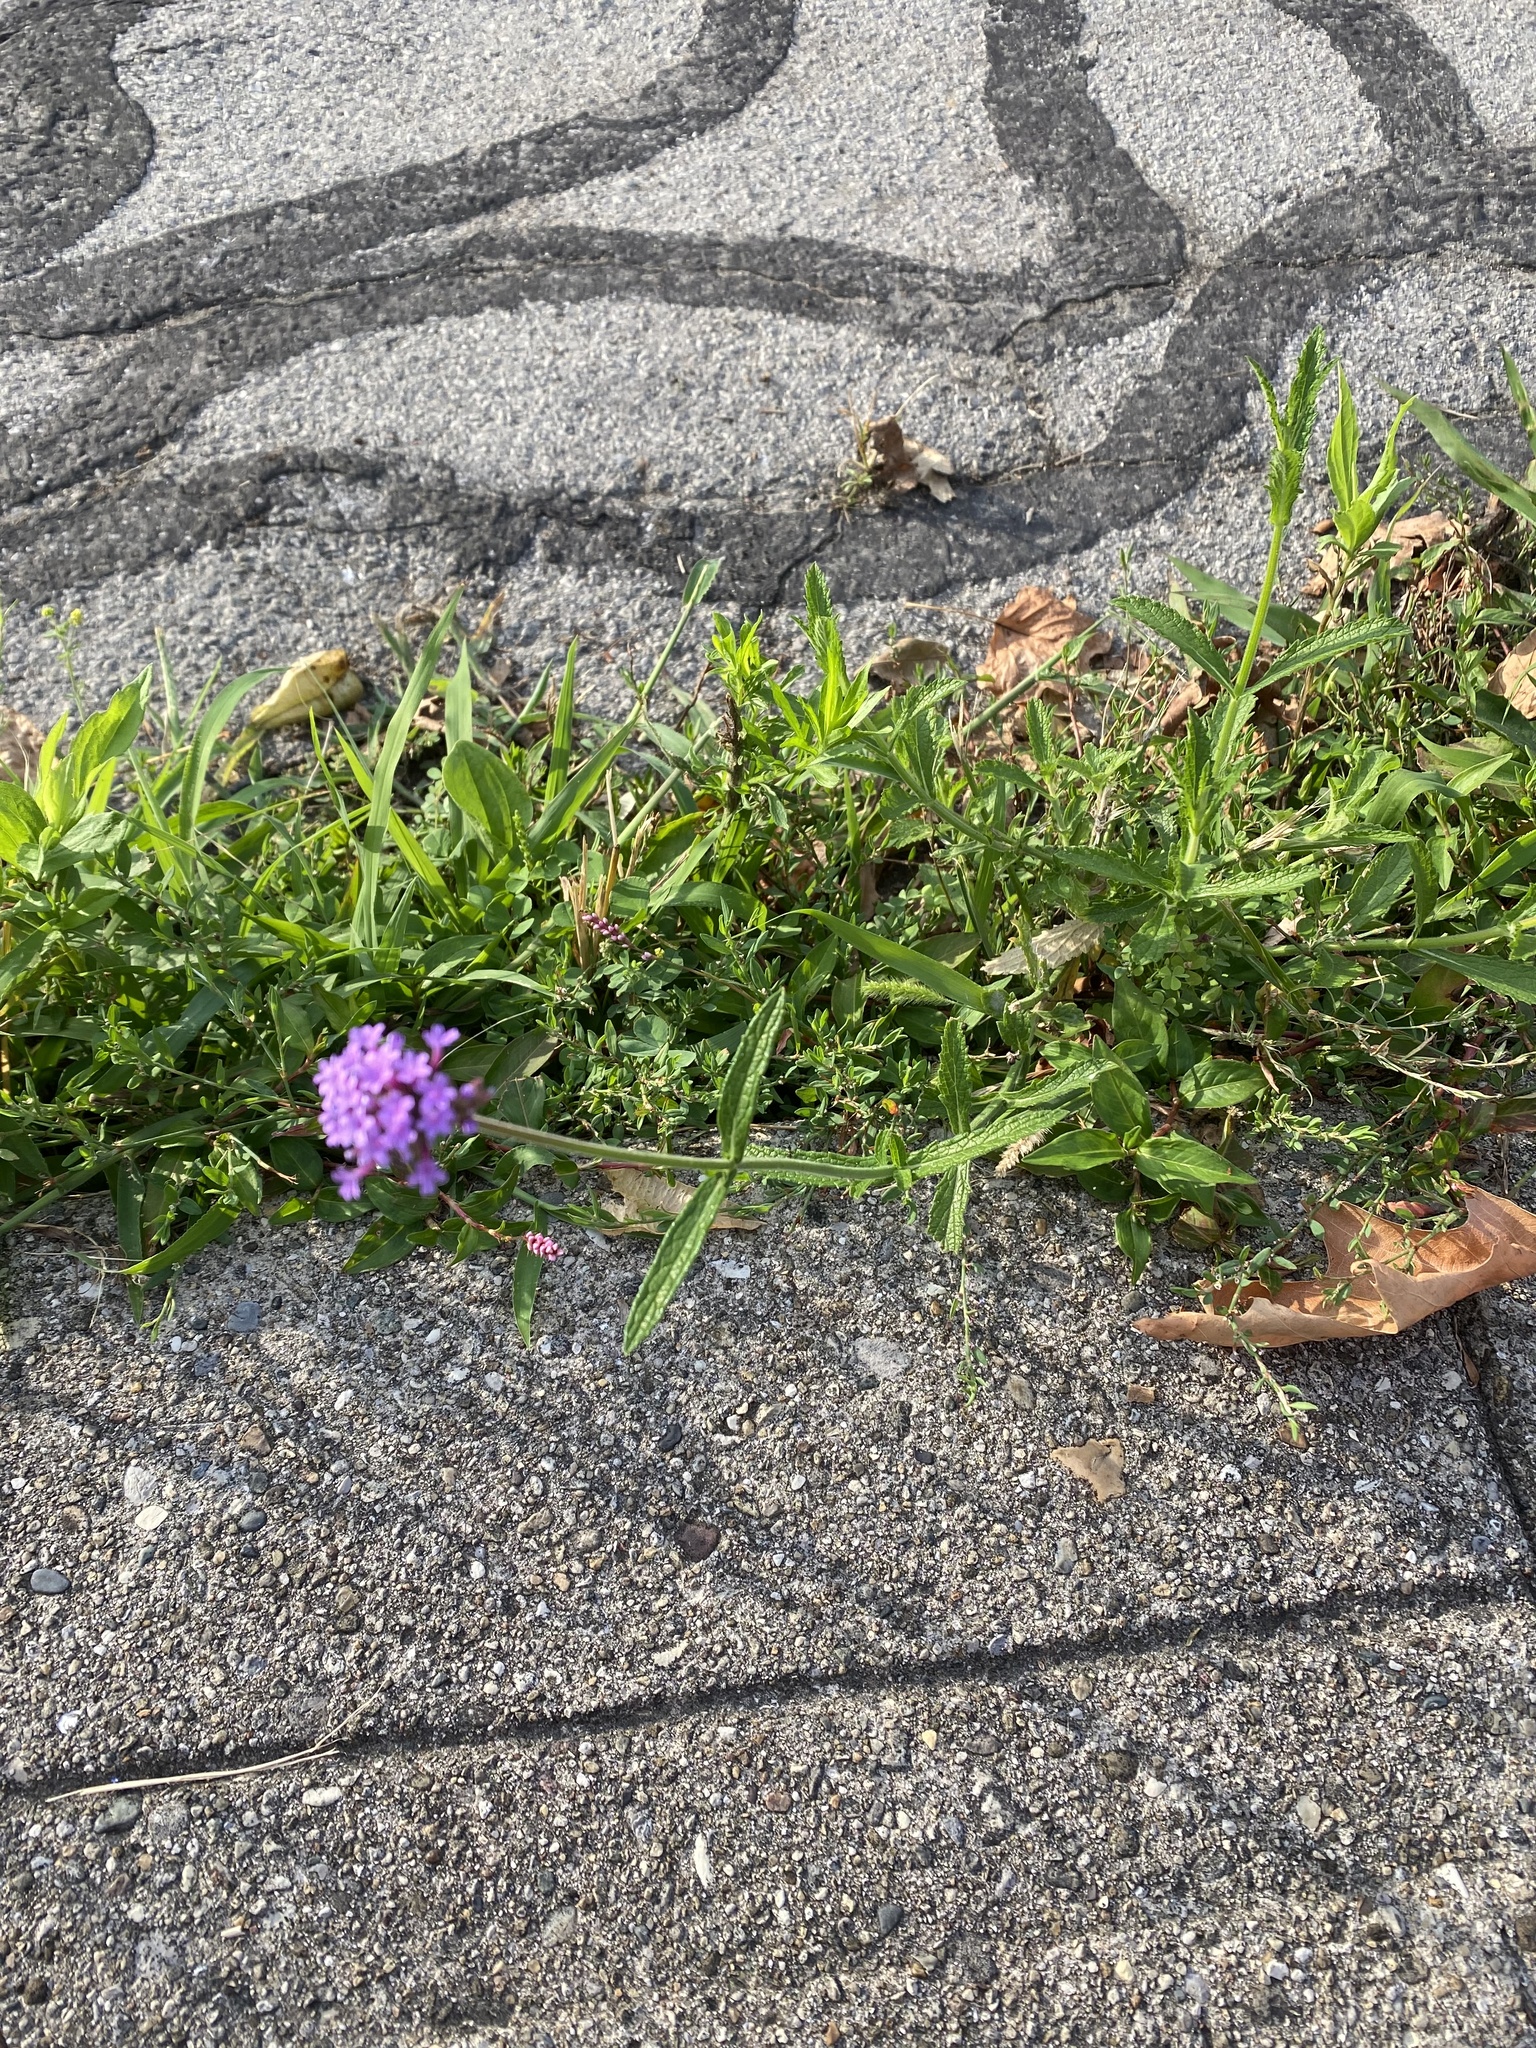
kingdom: Plantae
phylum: Tracheophyta
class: Magnoliopsida
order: Lamiales
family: Verbenaceae
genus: Verbena
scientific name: Verbena bonariensis
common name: Purpletop vervain
